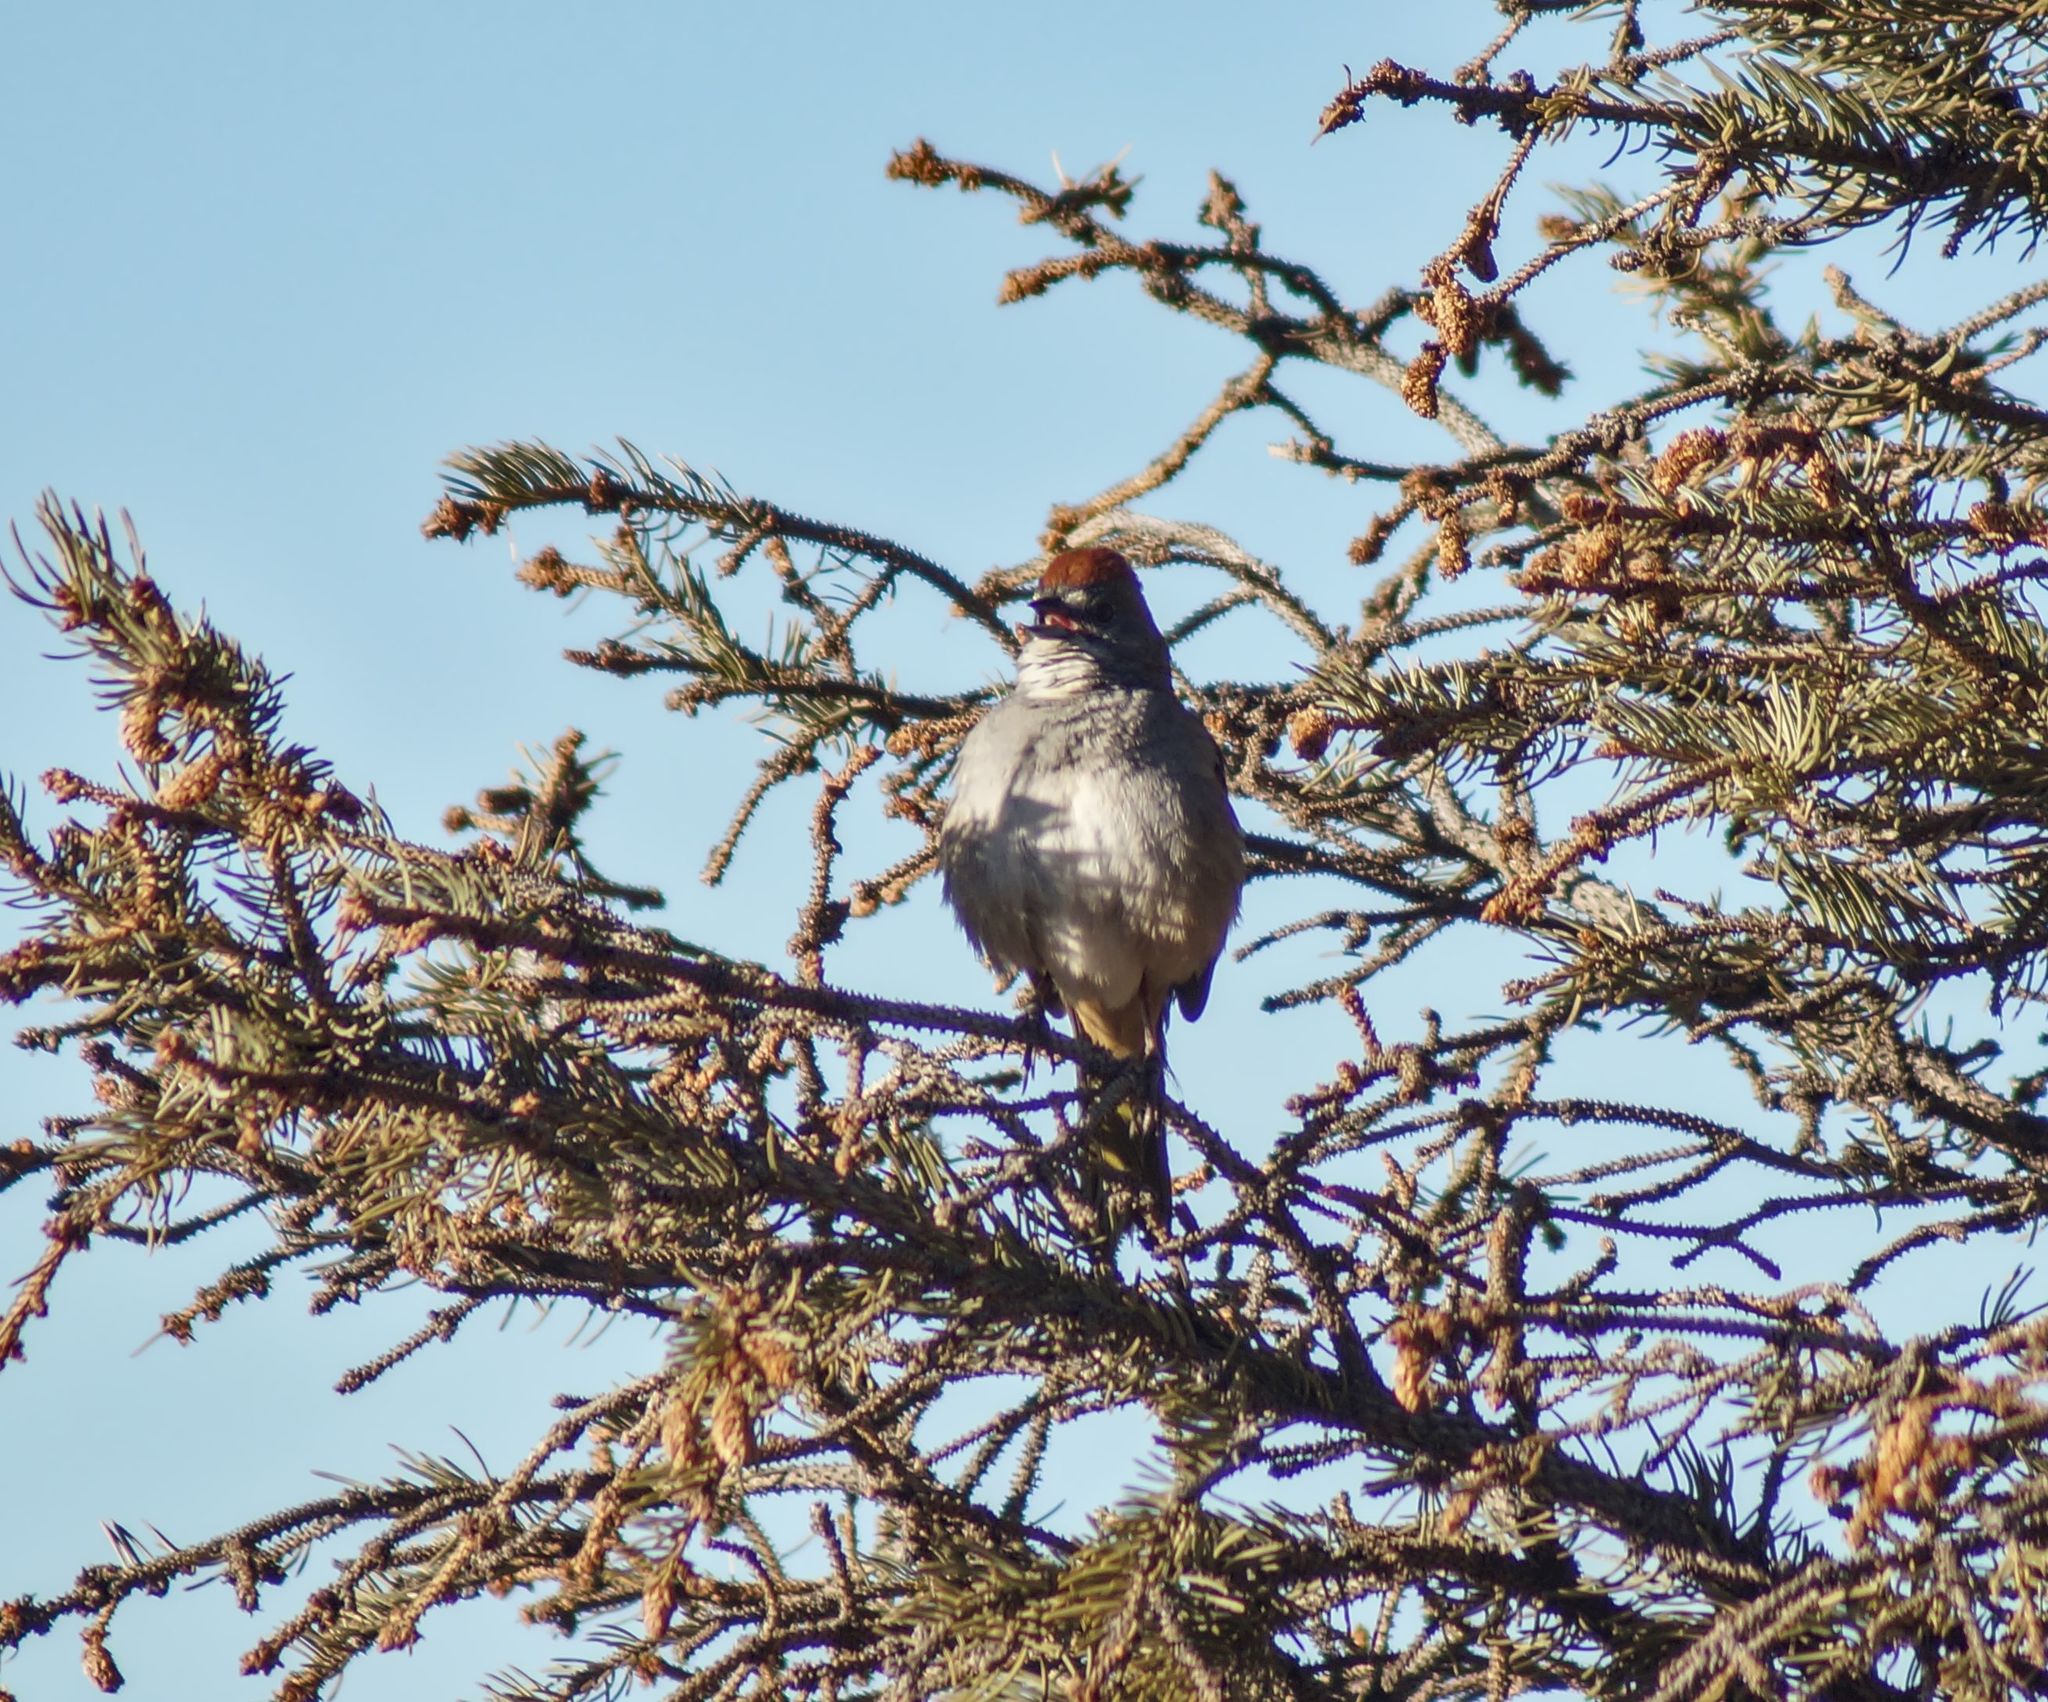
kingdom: Animalia
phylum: Chordata
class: Aves
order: Passeriformes
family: Passerellidae
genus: Pipilo
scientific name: Pipilo chlorurus
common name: Green-tailed towhee
